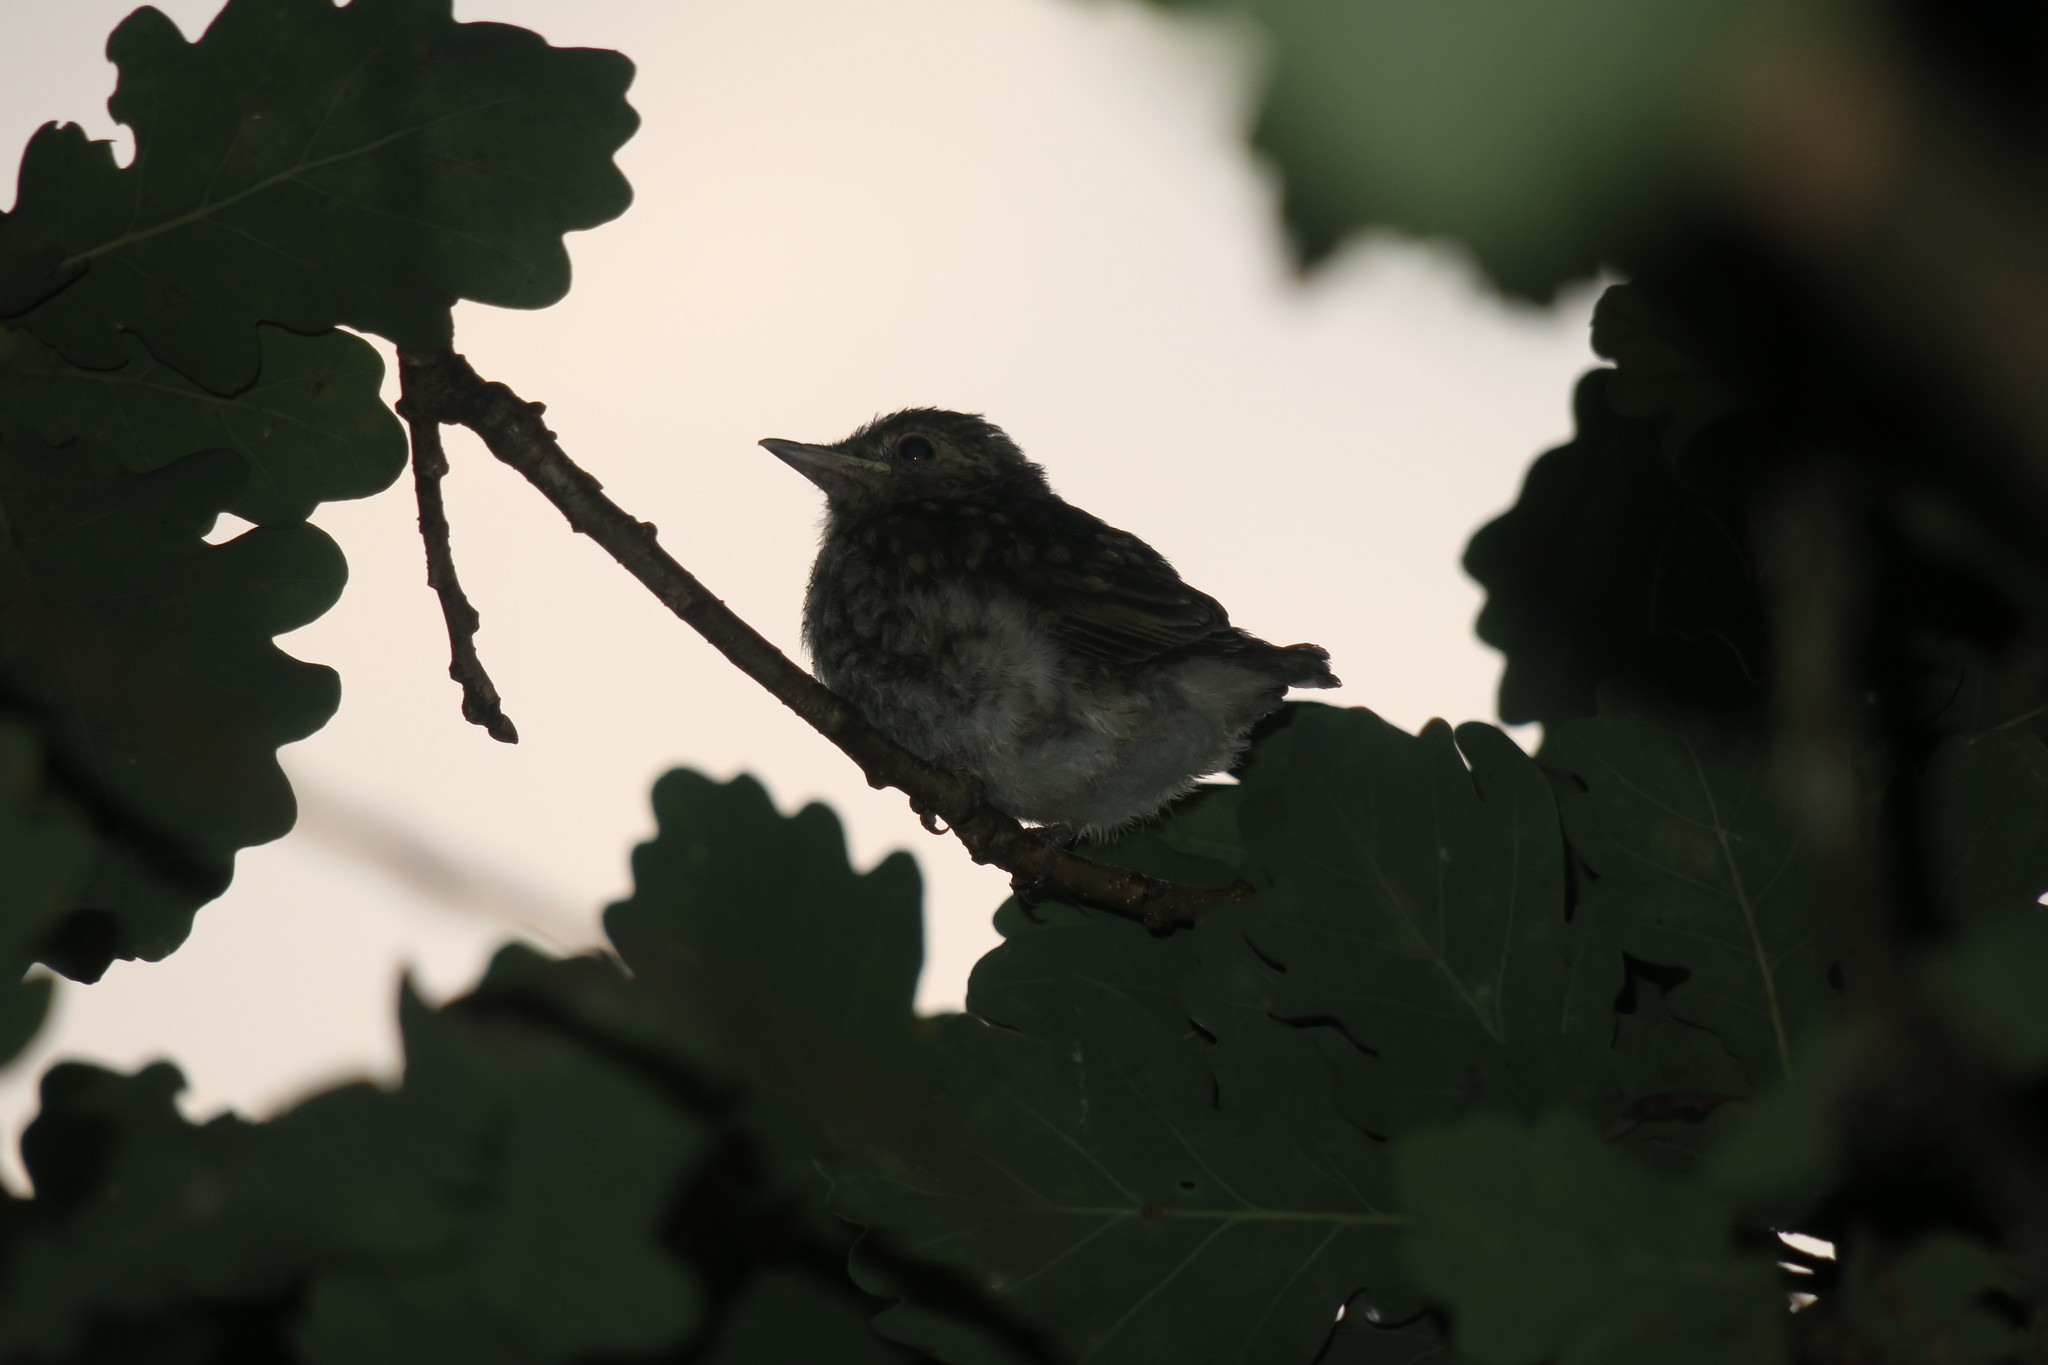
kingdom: Animalia
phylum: Chordata
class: Aves
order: Passeriformes
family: Muscicapidae
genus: Muscicapa
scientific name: Muscicapa striata
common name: Spotted flycatcher
